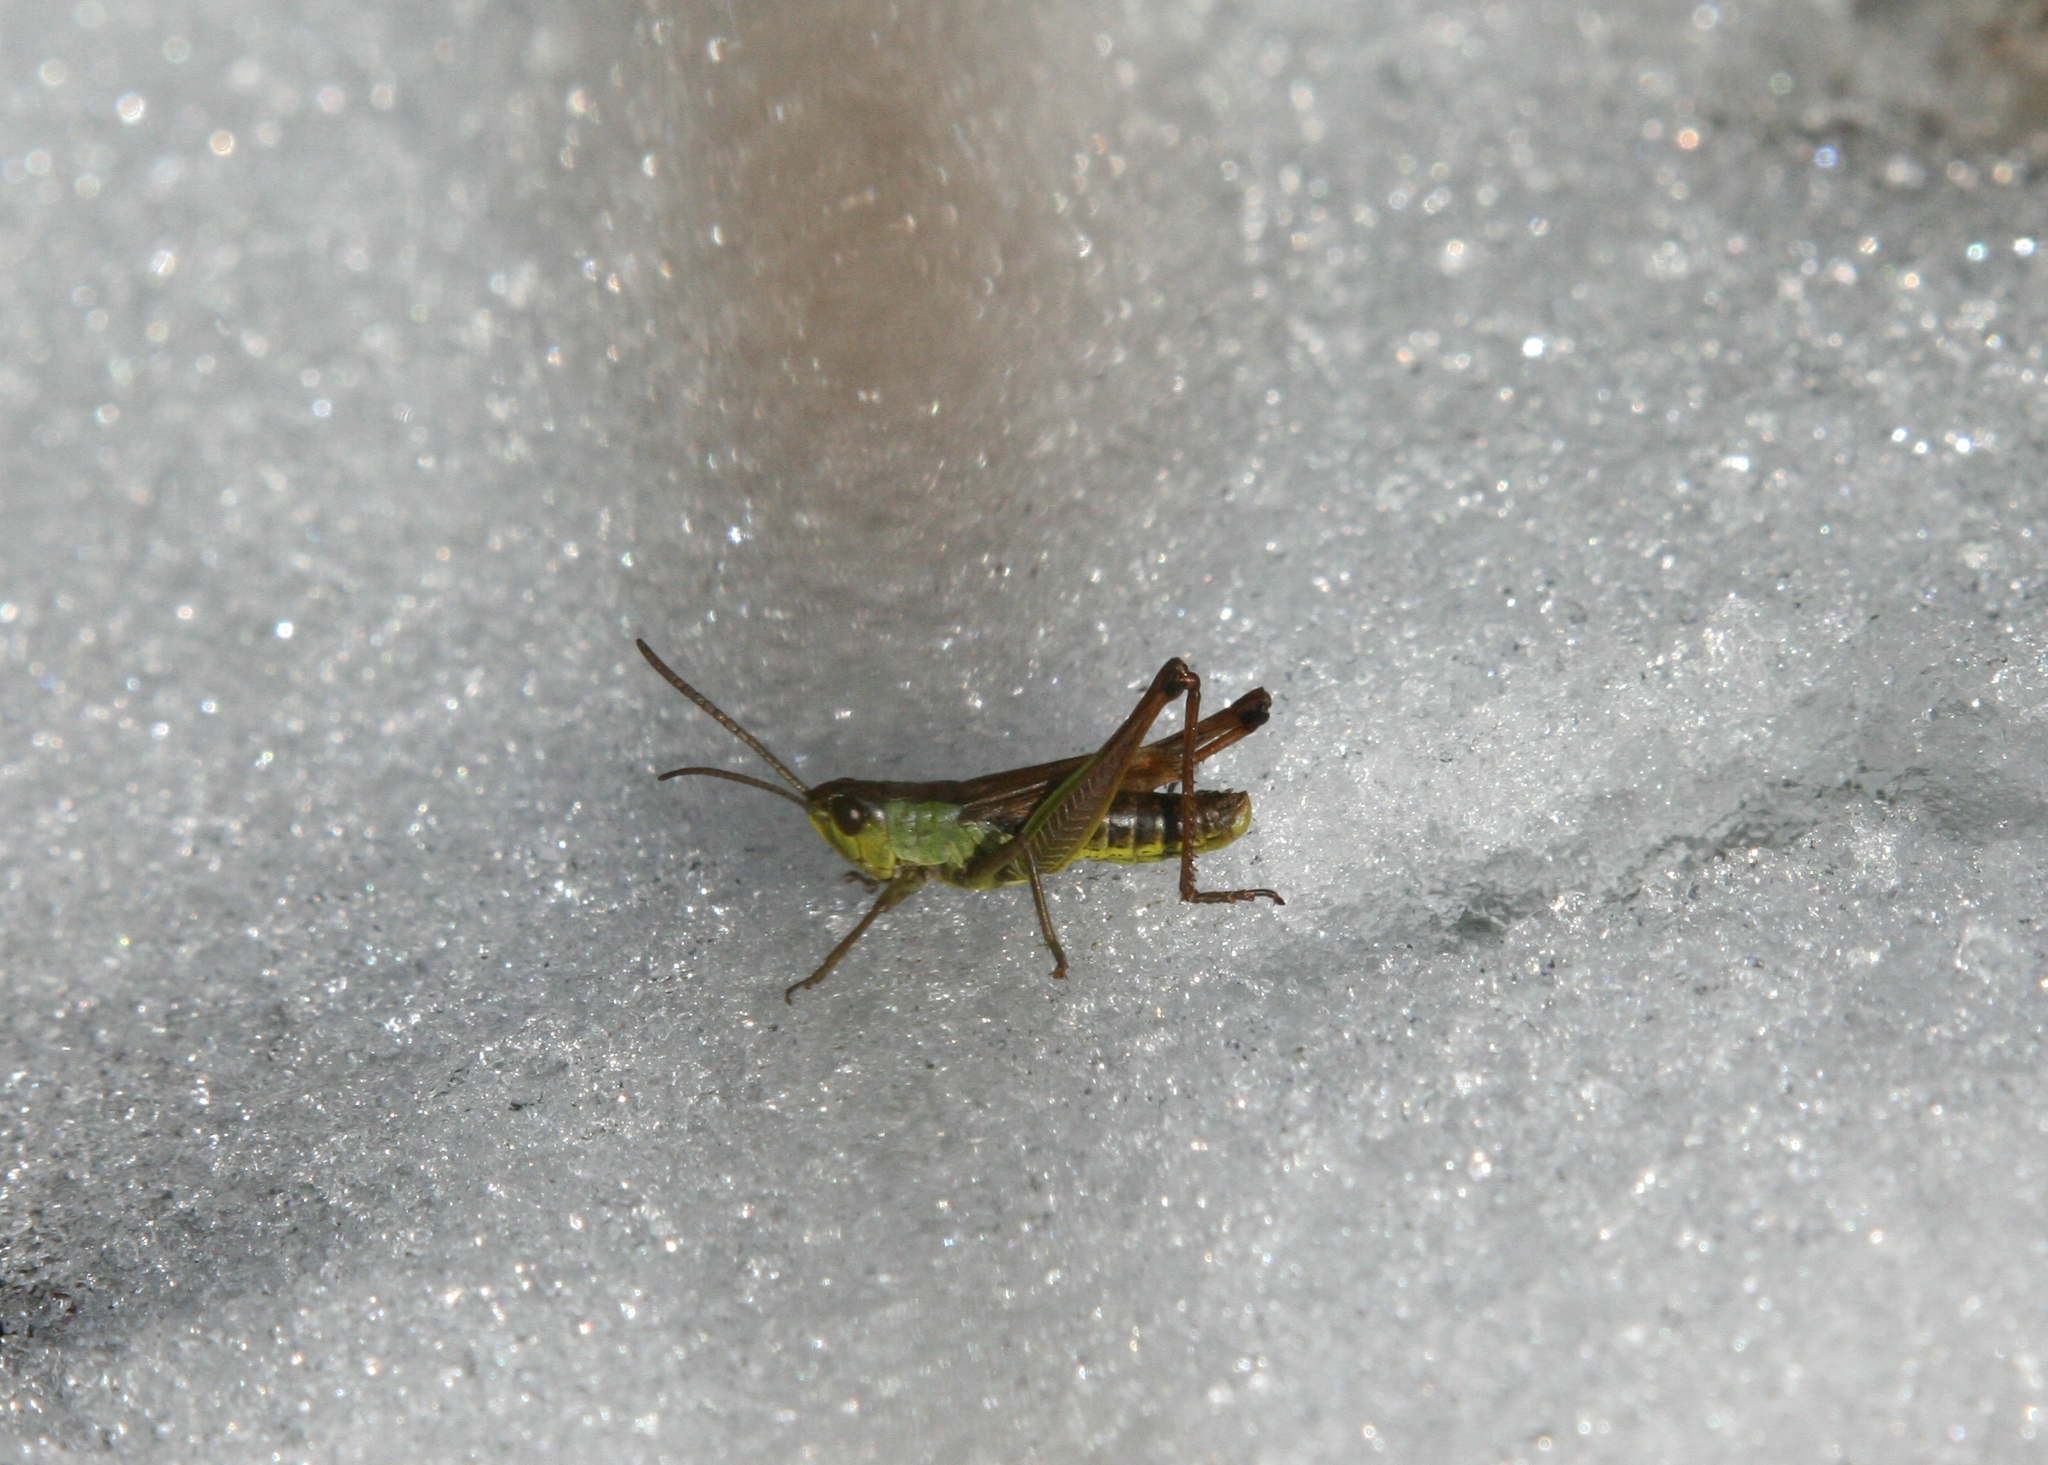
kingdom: Animalia
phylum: Arthropoda
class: Insecta
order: Orthoptera
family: Acrididae
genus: Pseudochorthippus
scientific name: Pseudochorthippus parallelus
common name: Meadow grasshopper
